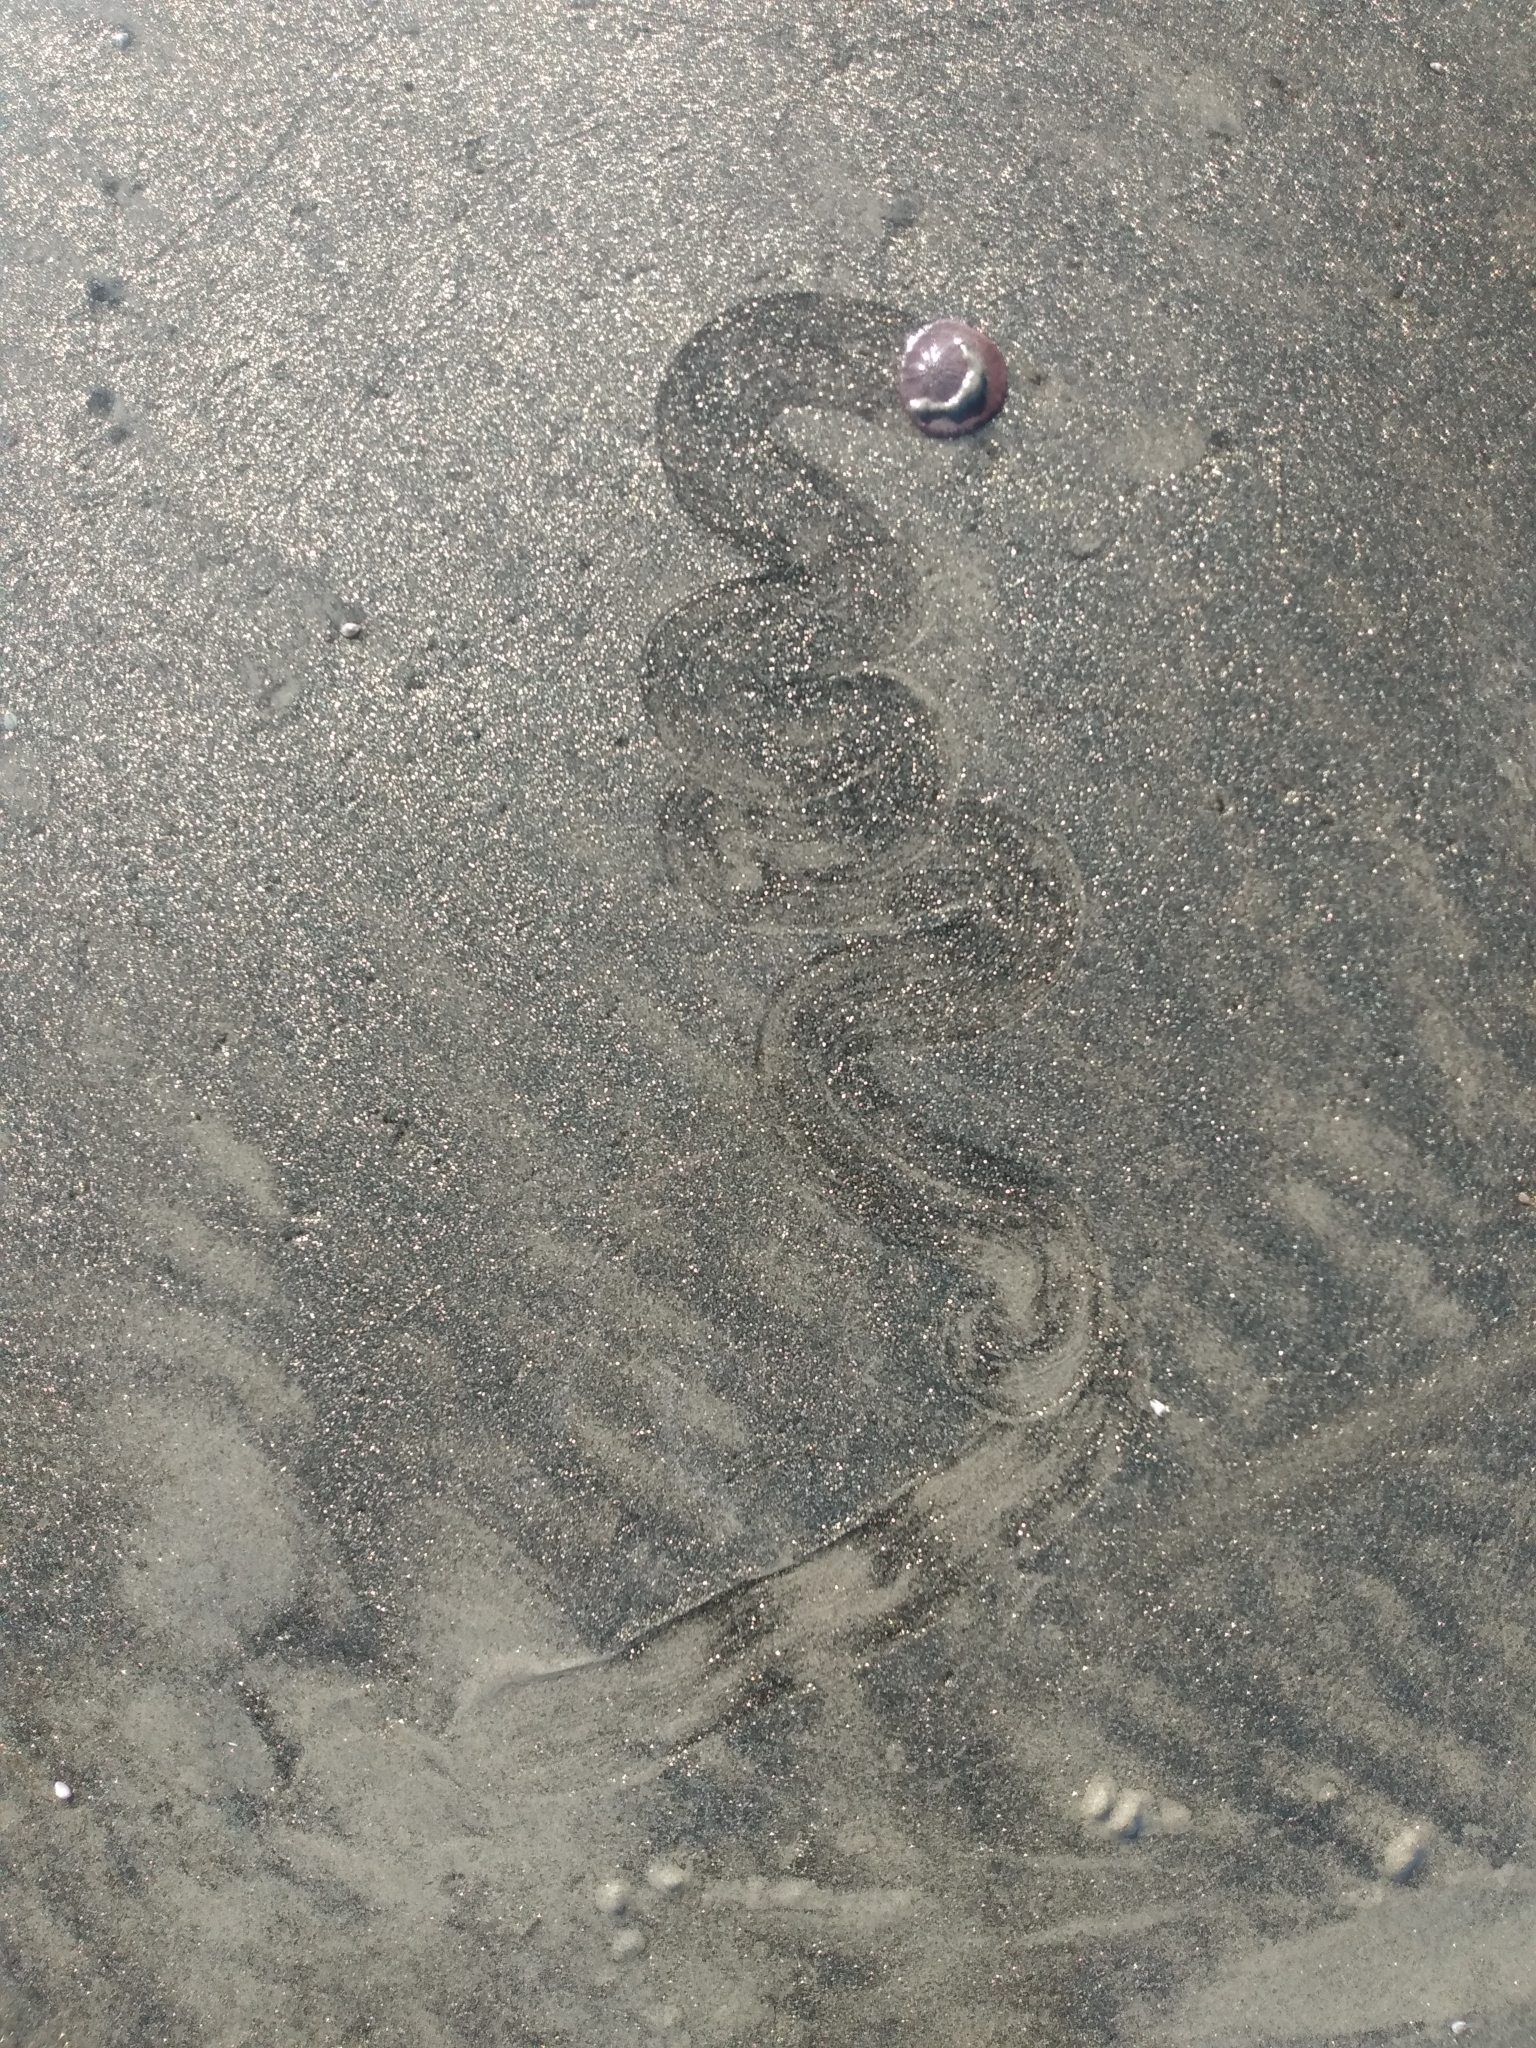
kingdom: Animalia
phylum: Echinodermata
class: Echinoidea
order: Echinolampadacea
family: Dendrasteridae
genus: Dendraster
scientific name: Dendraster excentricus
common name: Eccentric sand dollar sea urchin
